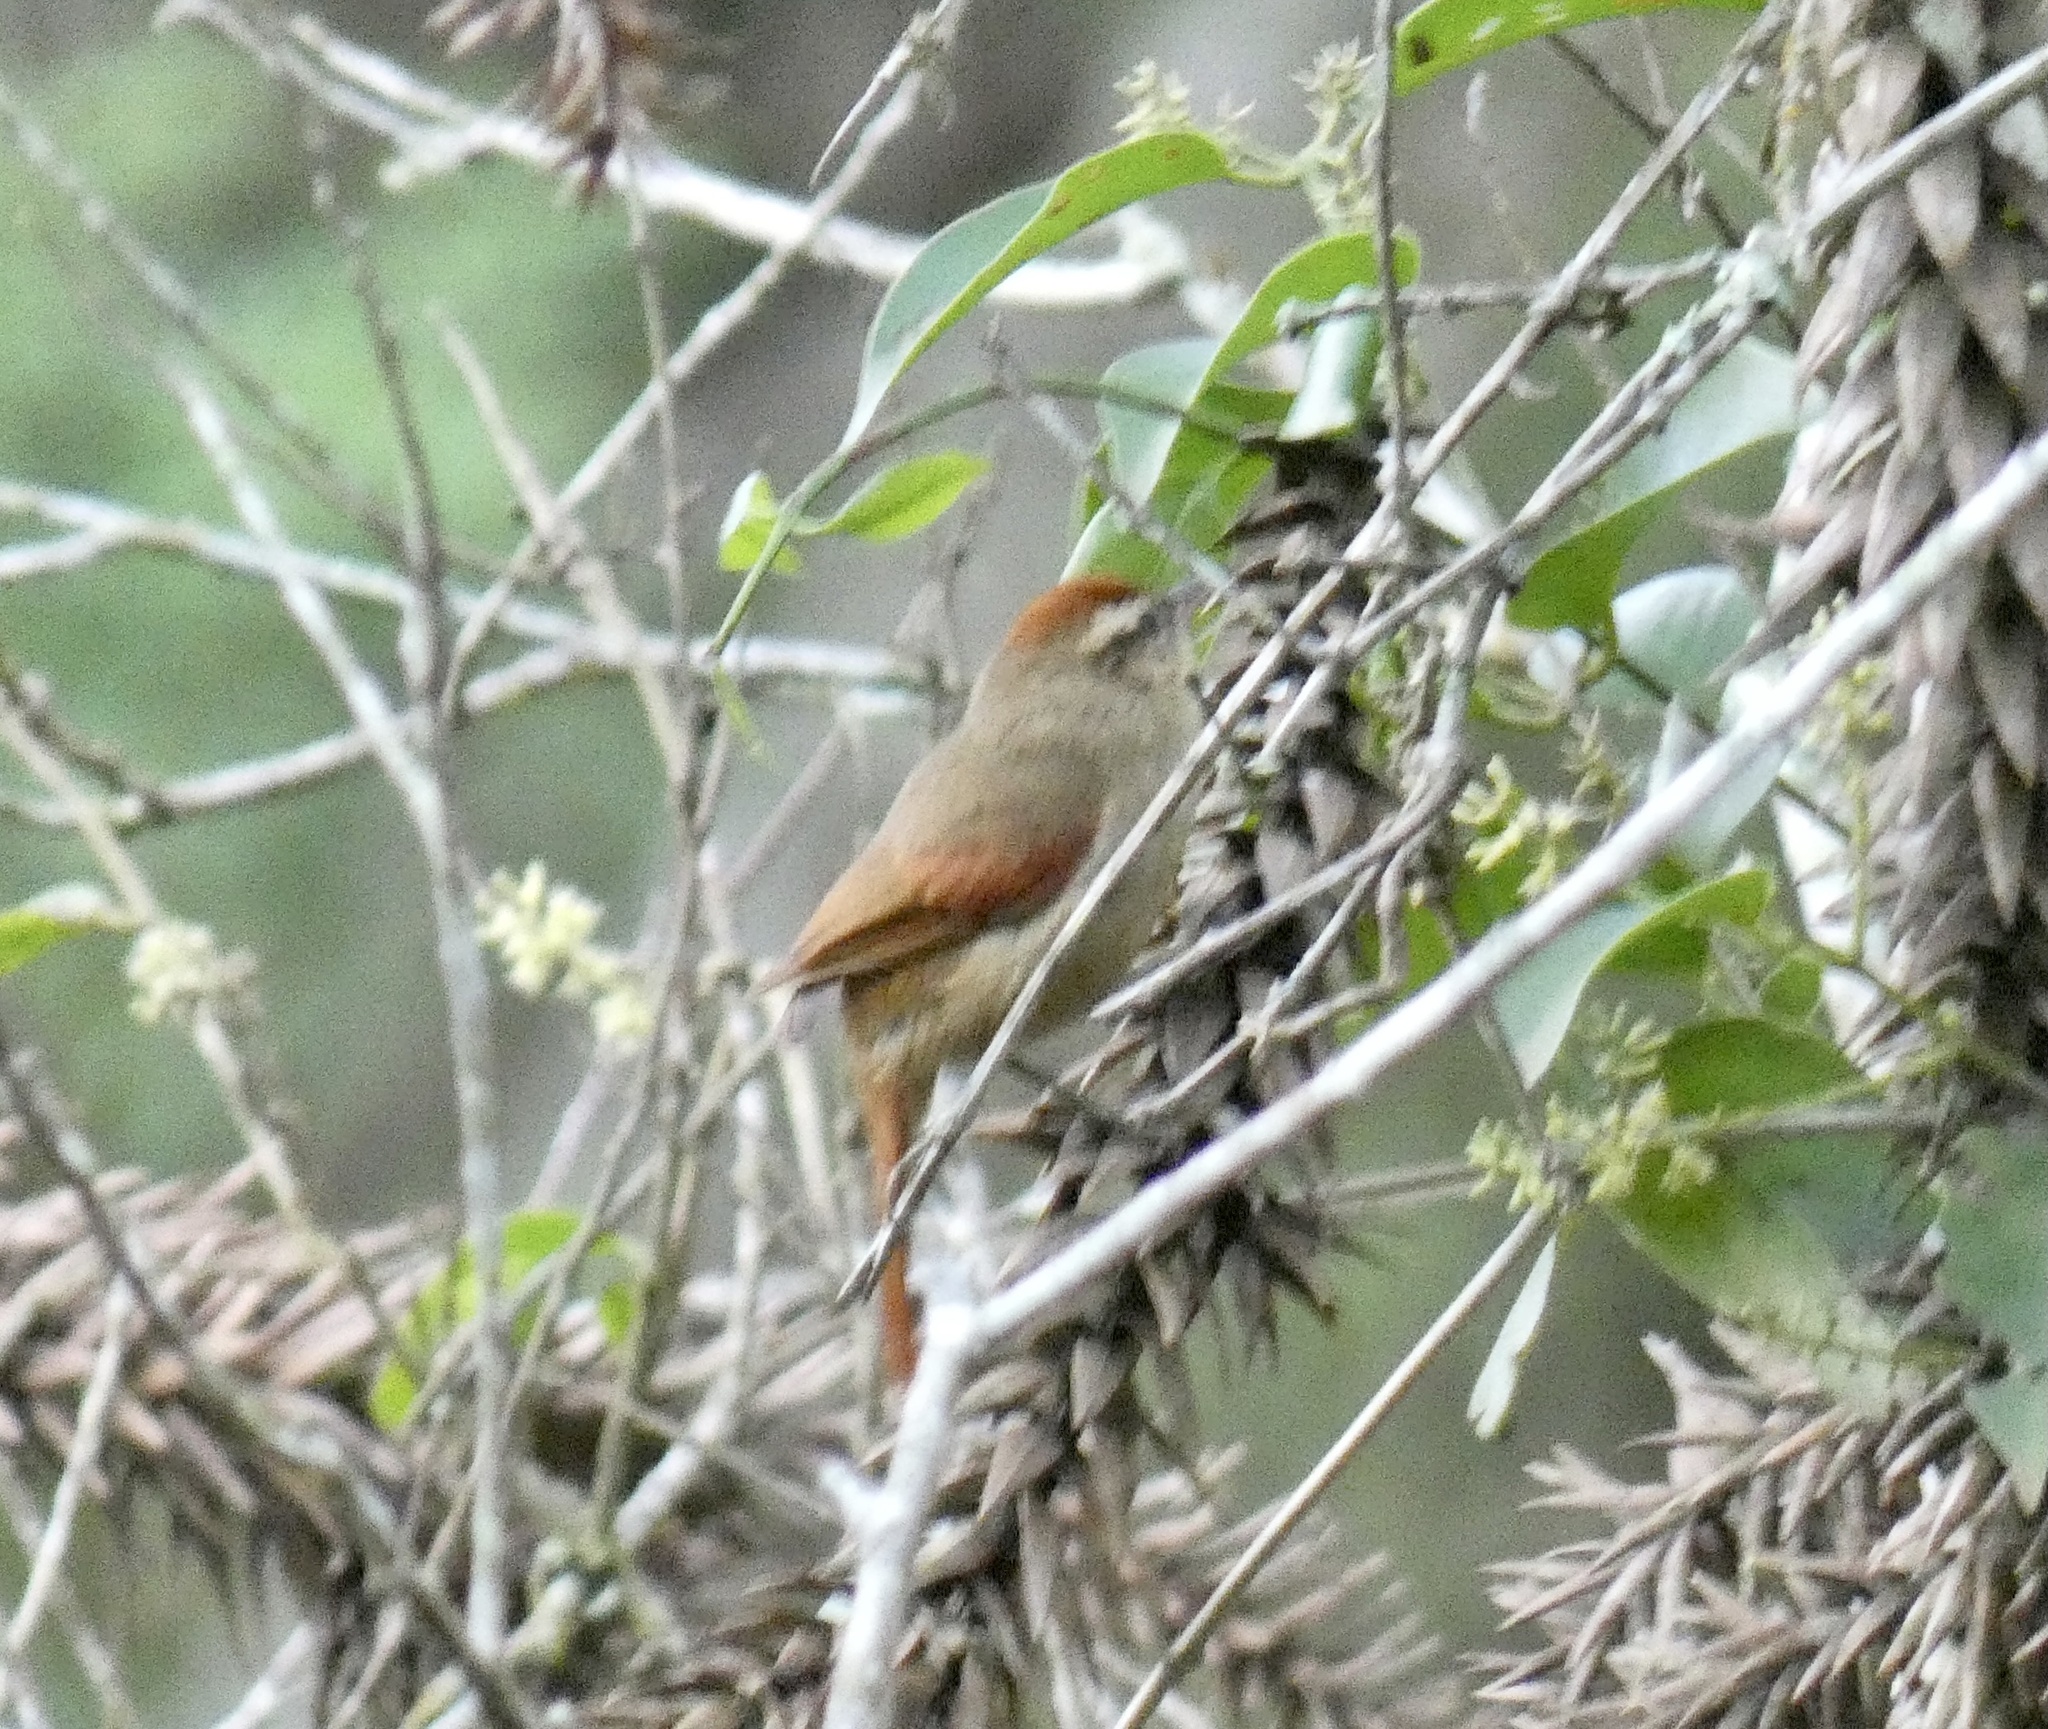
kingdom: Animalia
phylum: Chordata
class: Aves
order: Passeriformes
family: Furnariidae
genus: Cranioleuca
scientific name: Cranioleuca pallida
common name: Pallid spinetail
